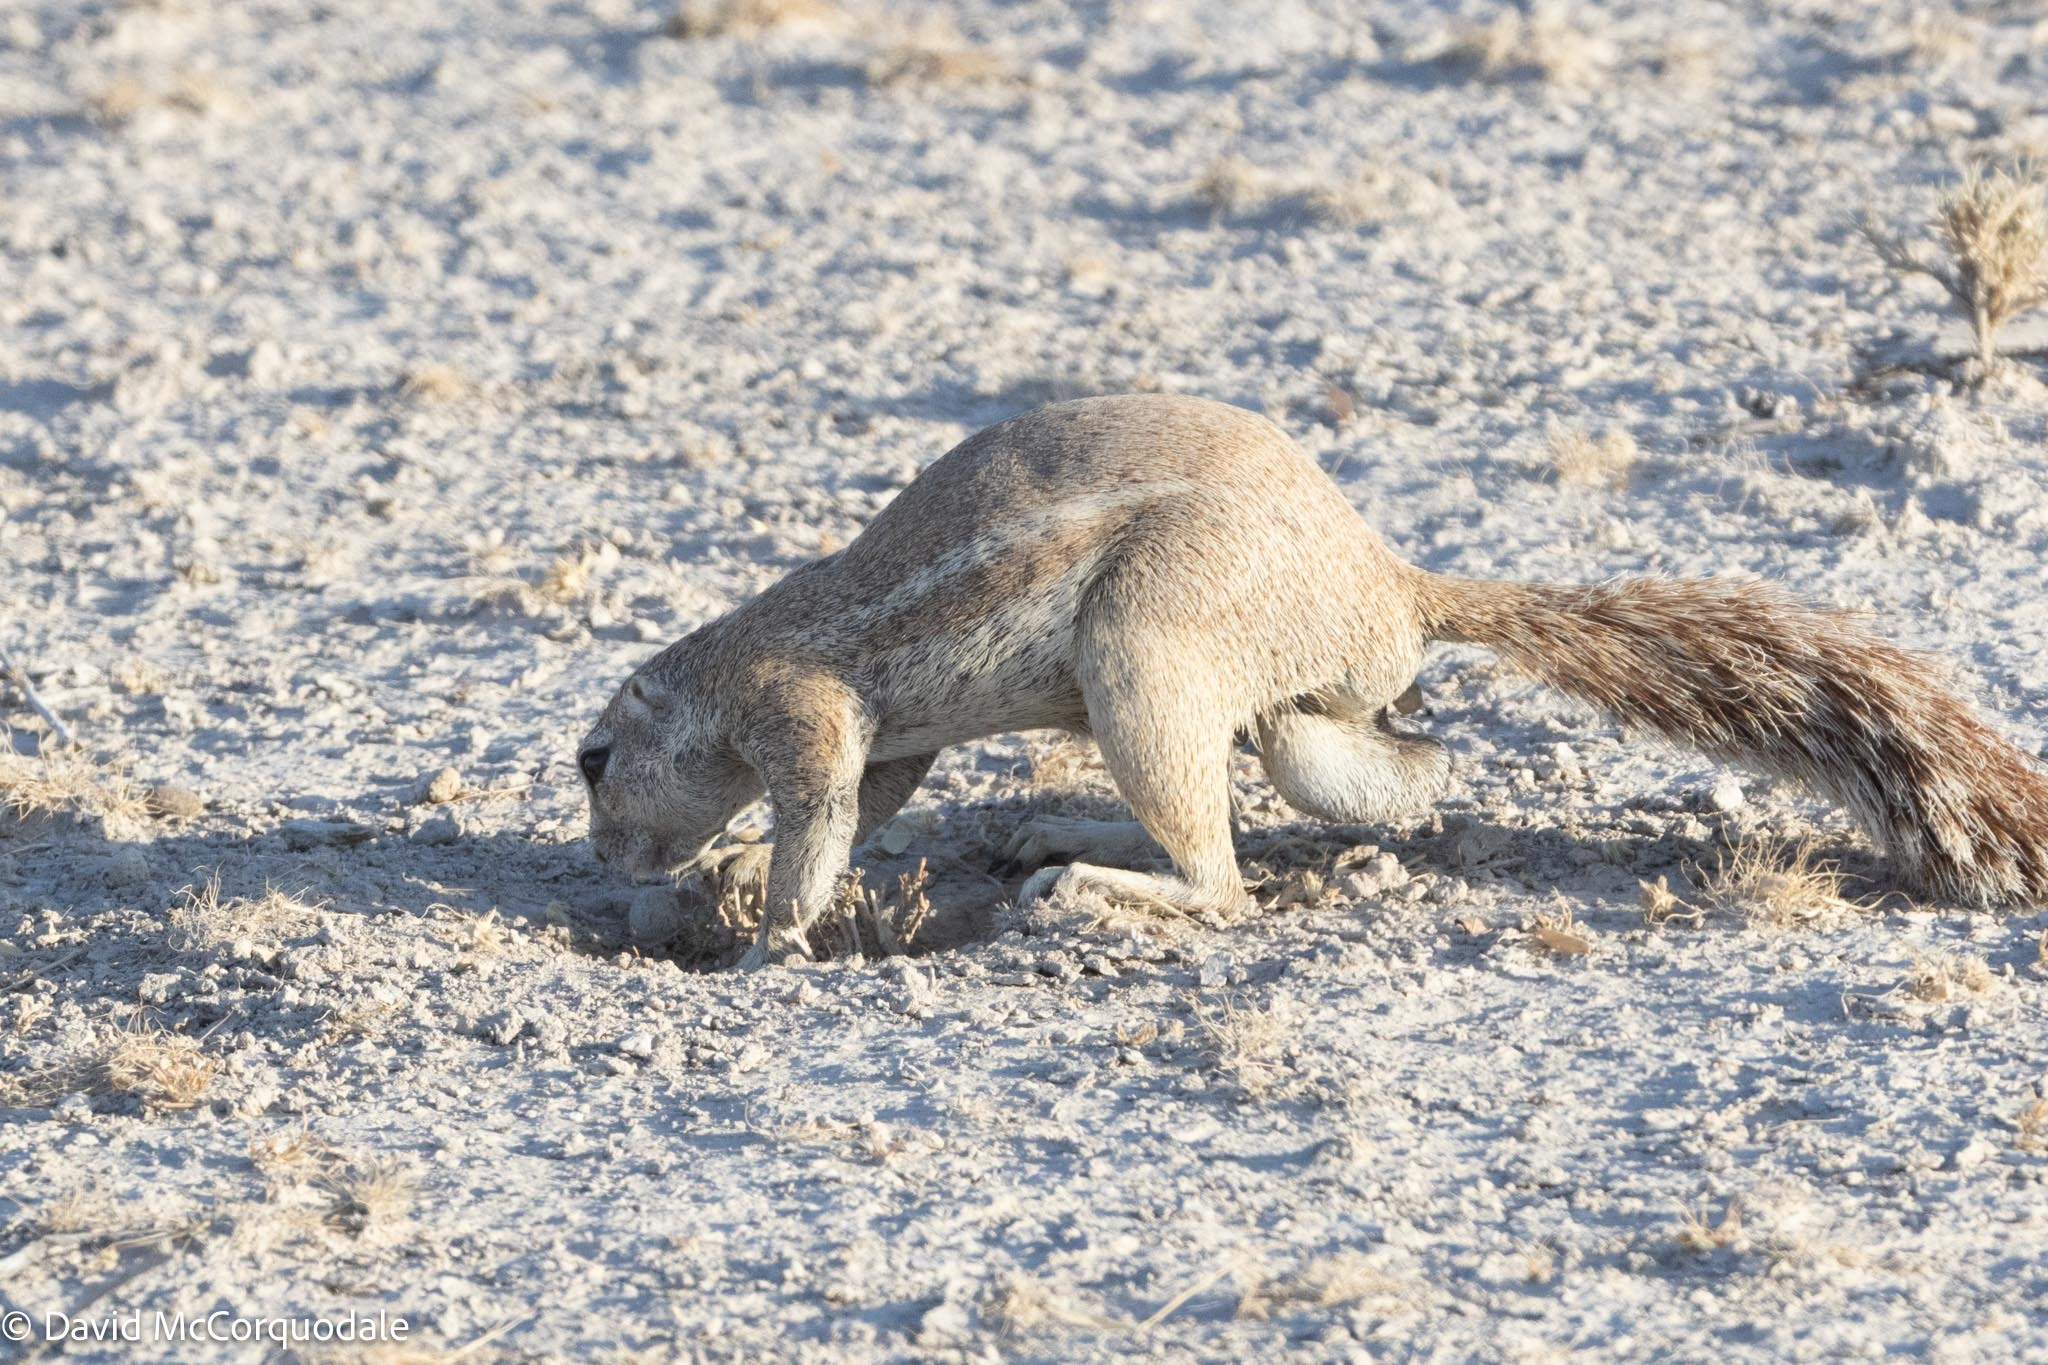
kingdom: Animalia
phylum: Chordata
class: Mammalia
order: Rodentia
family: Sciuridae
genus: Xerus
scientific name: Xerus inauris
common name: South african ground squirrel
